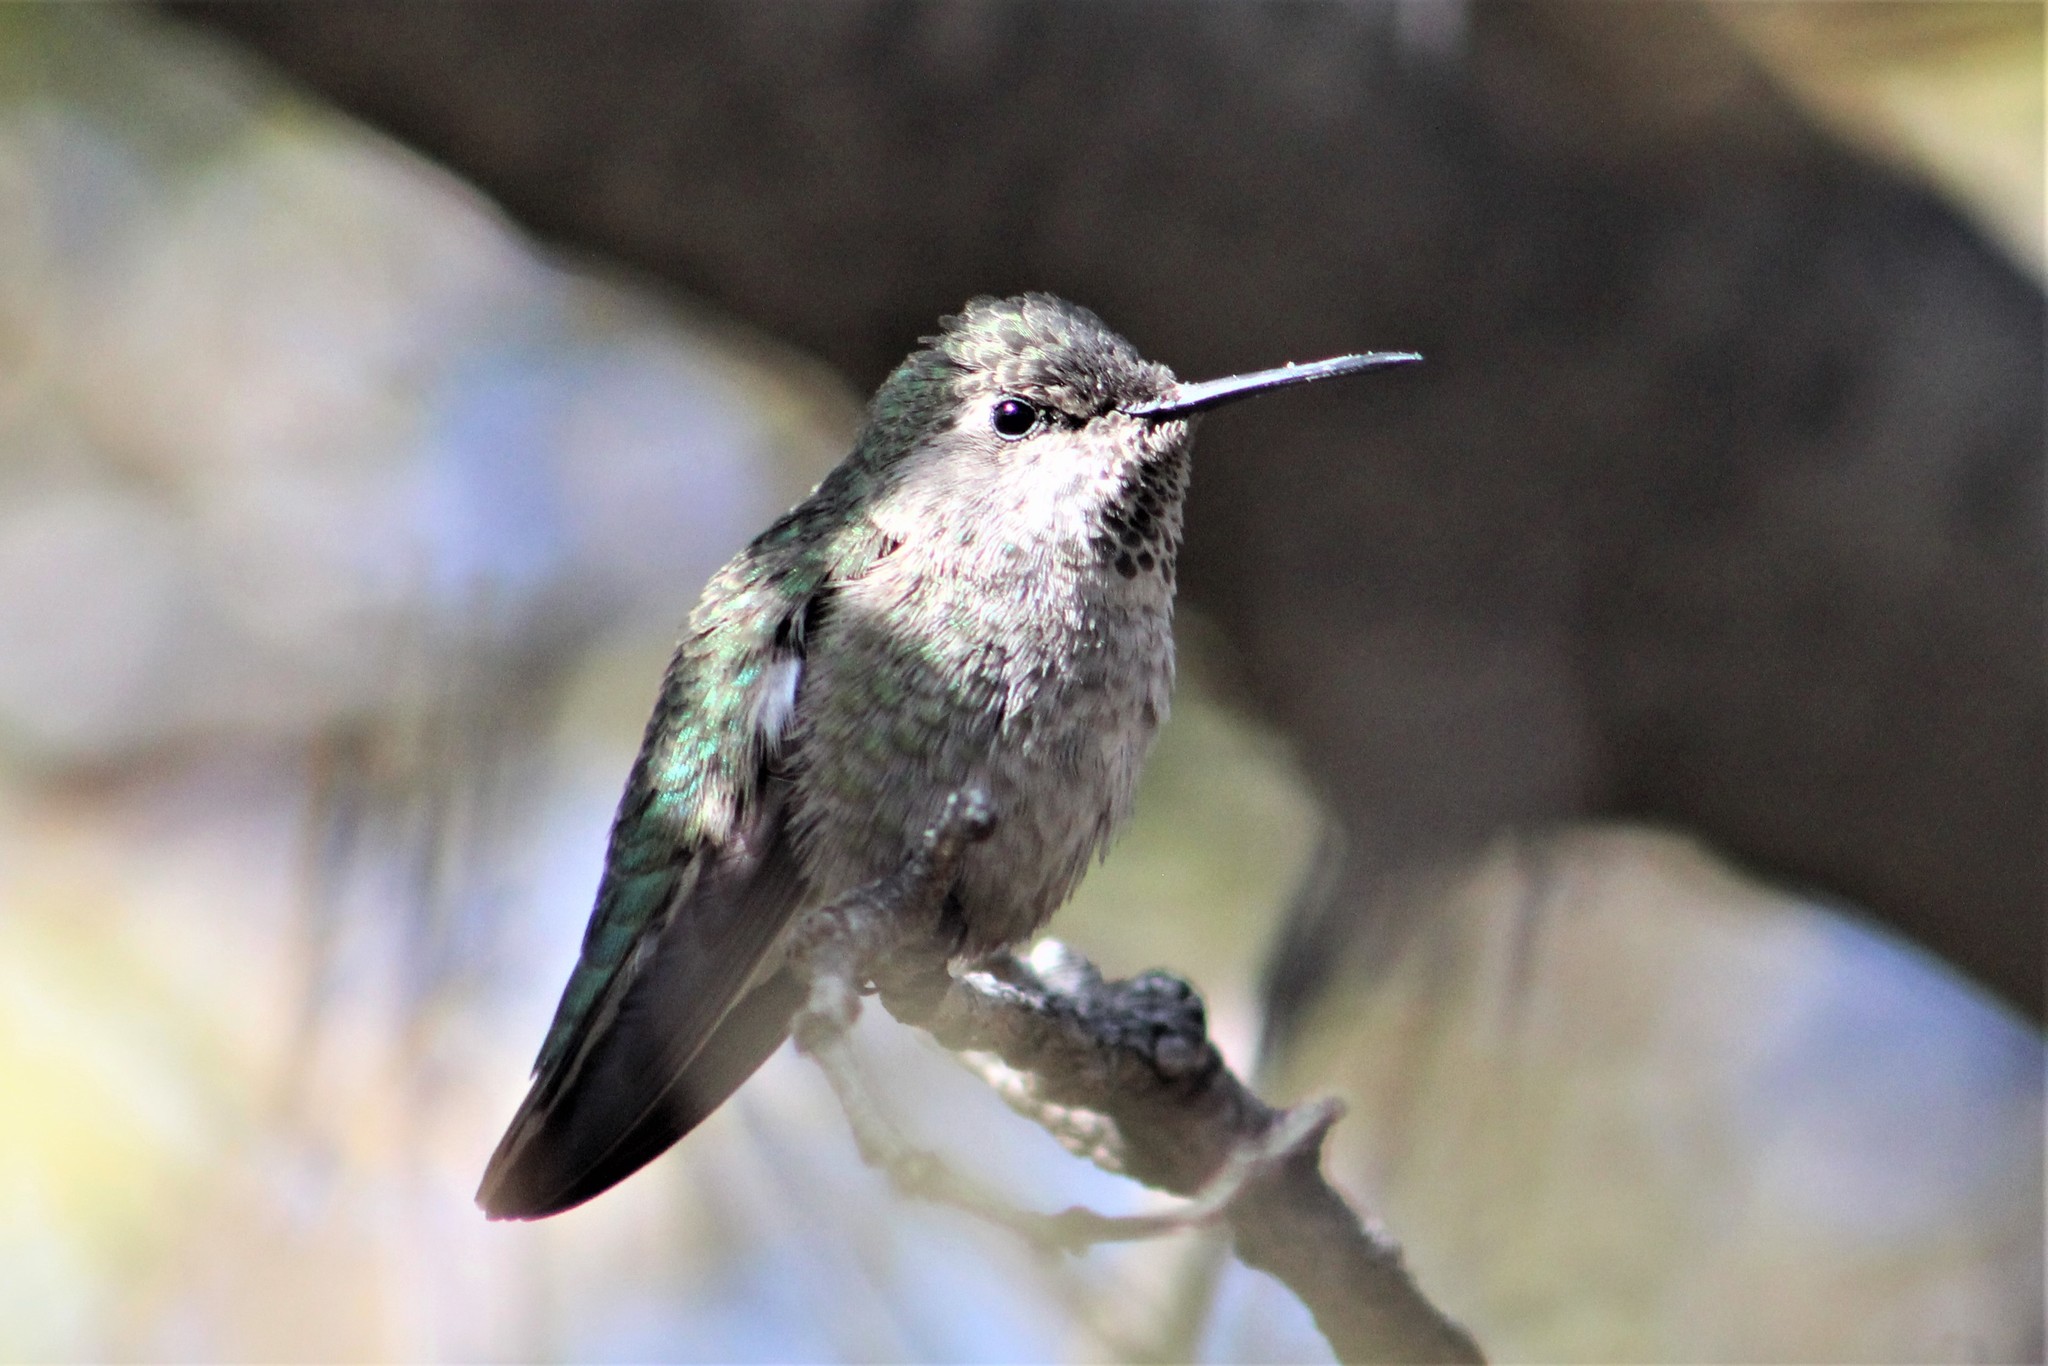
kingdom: Animalia
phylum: Chordata
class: Aves
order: Apodiformes
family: Trochilidae
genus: Calypte
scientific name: Calypte anna
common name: Anna's hummingbird
